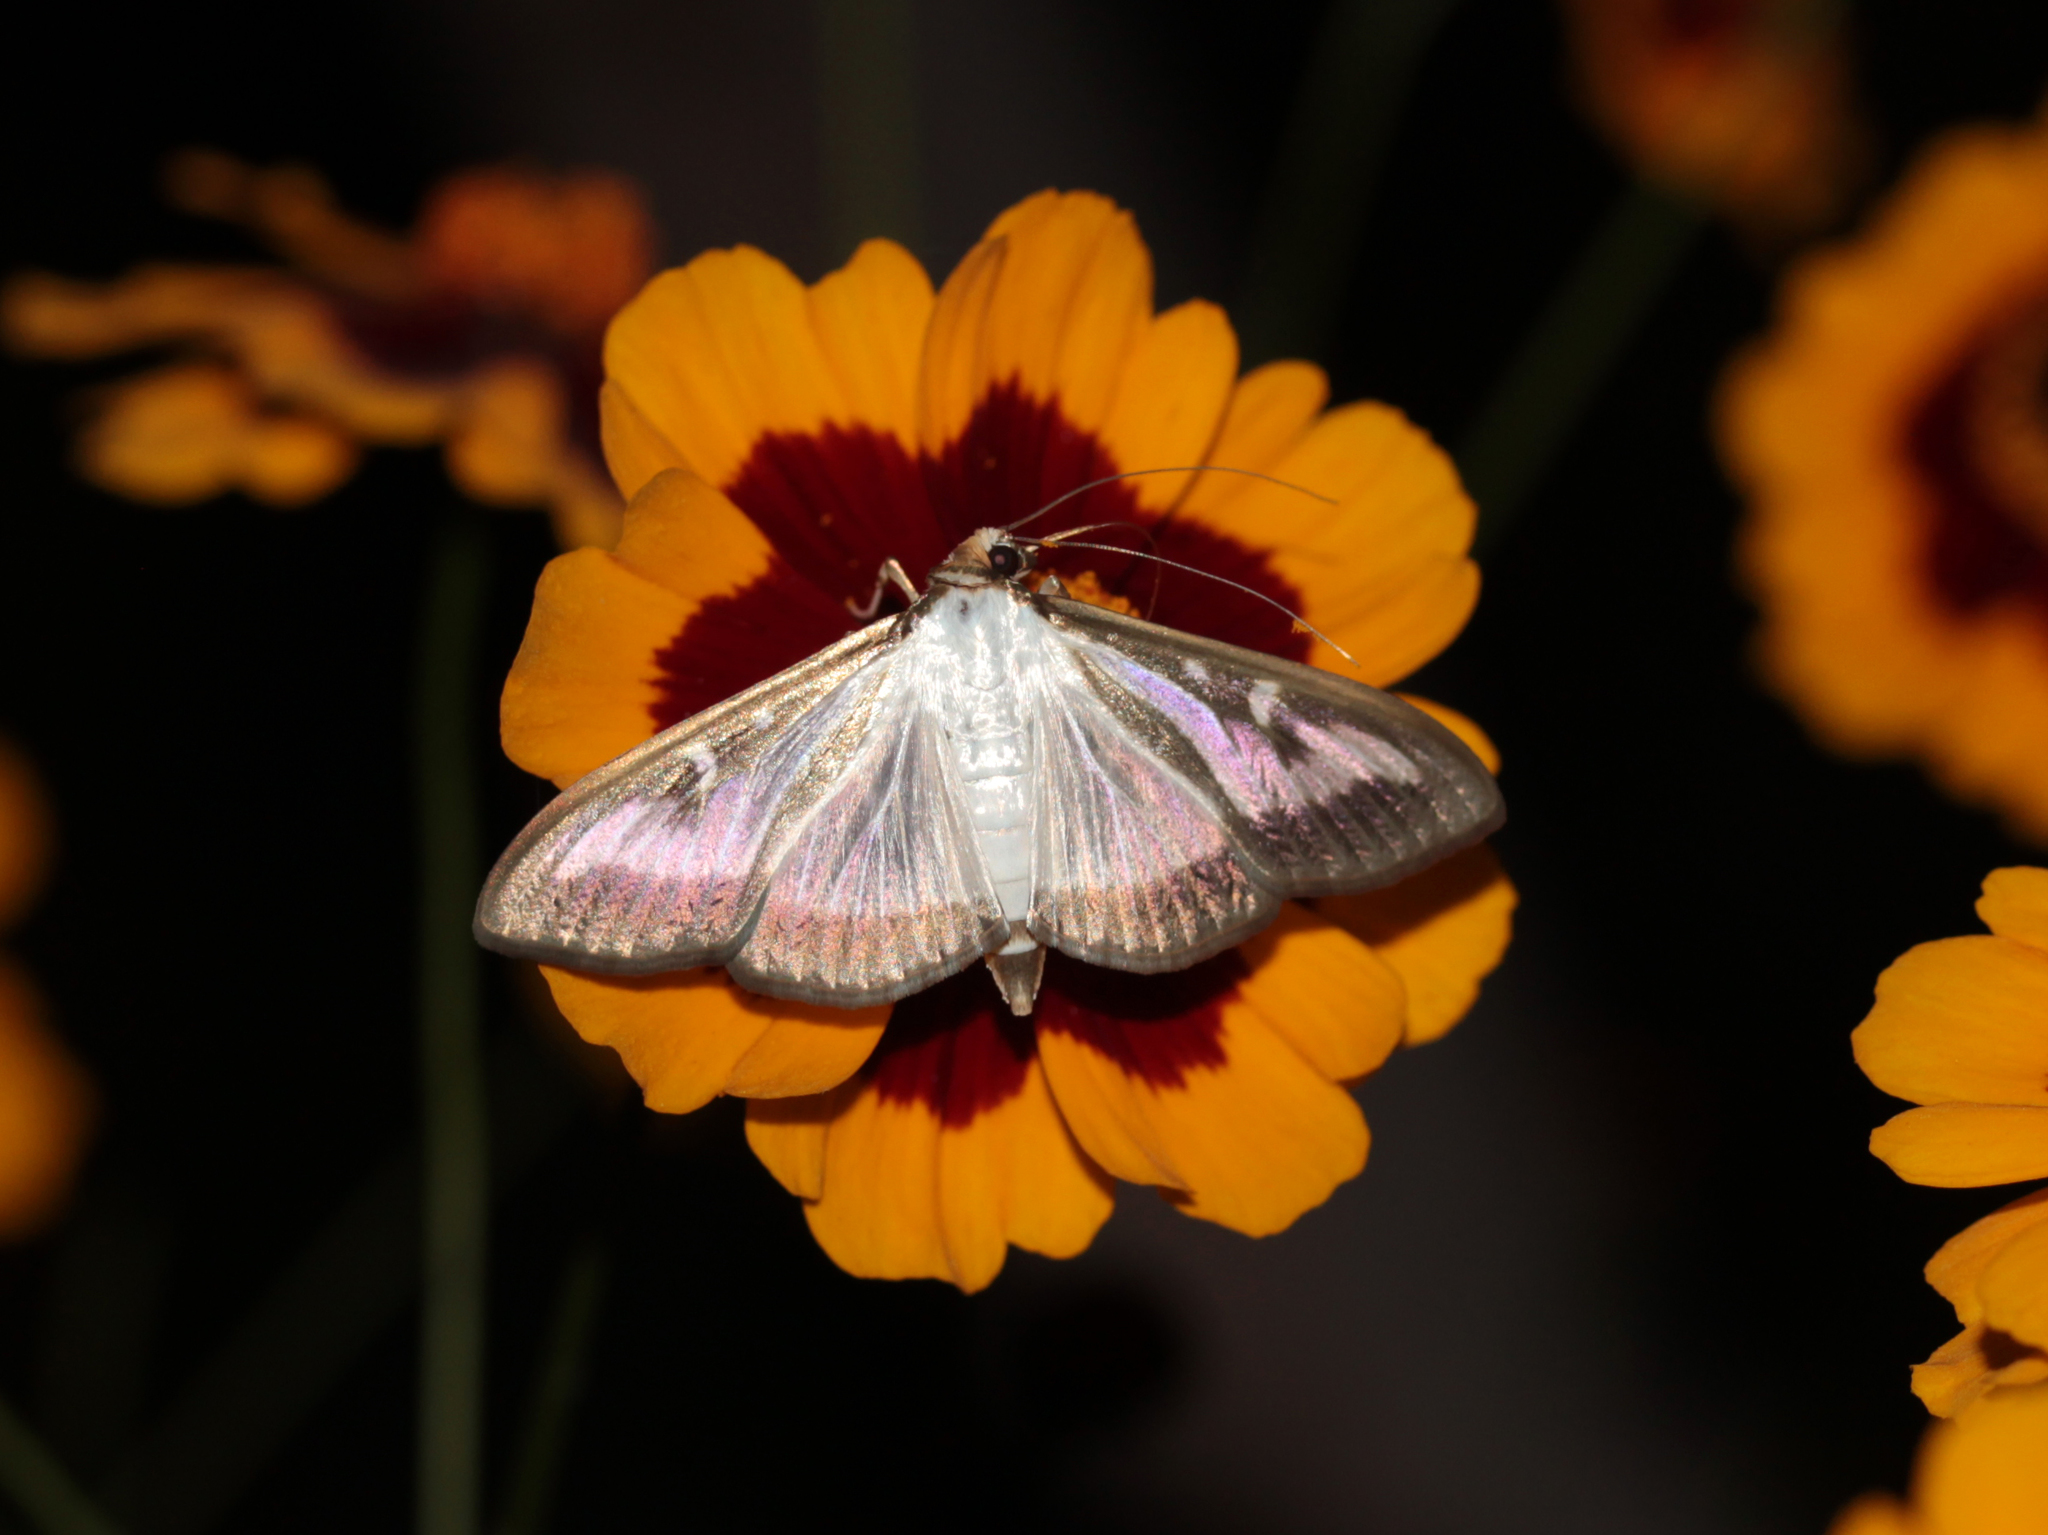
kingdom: Animalia
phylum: Arthropoda
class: Insecta
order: Lepidoptera
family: Crambidae
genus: Cydalima
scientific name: Cydalima perspectalis
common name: Box tree moth
